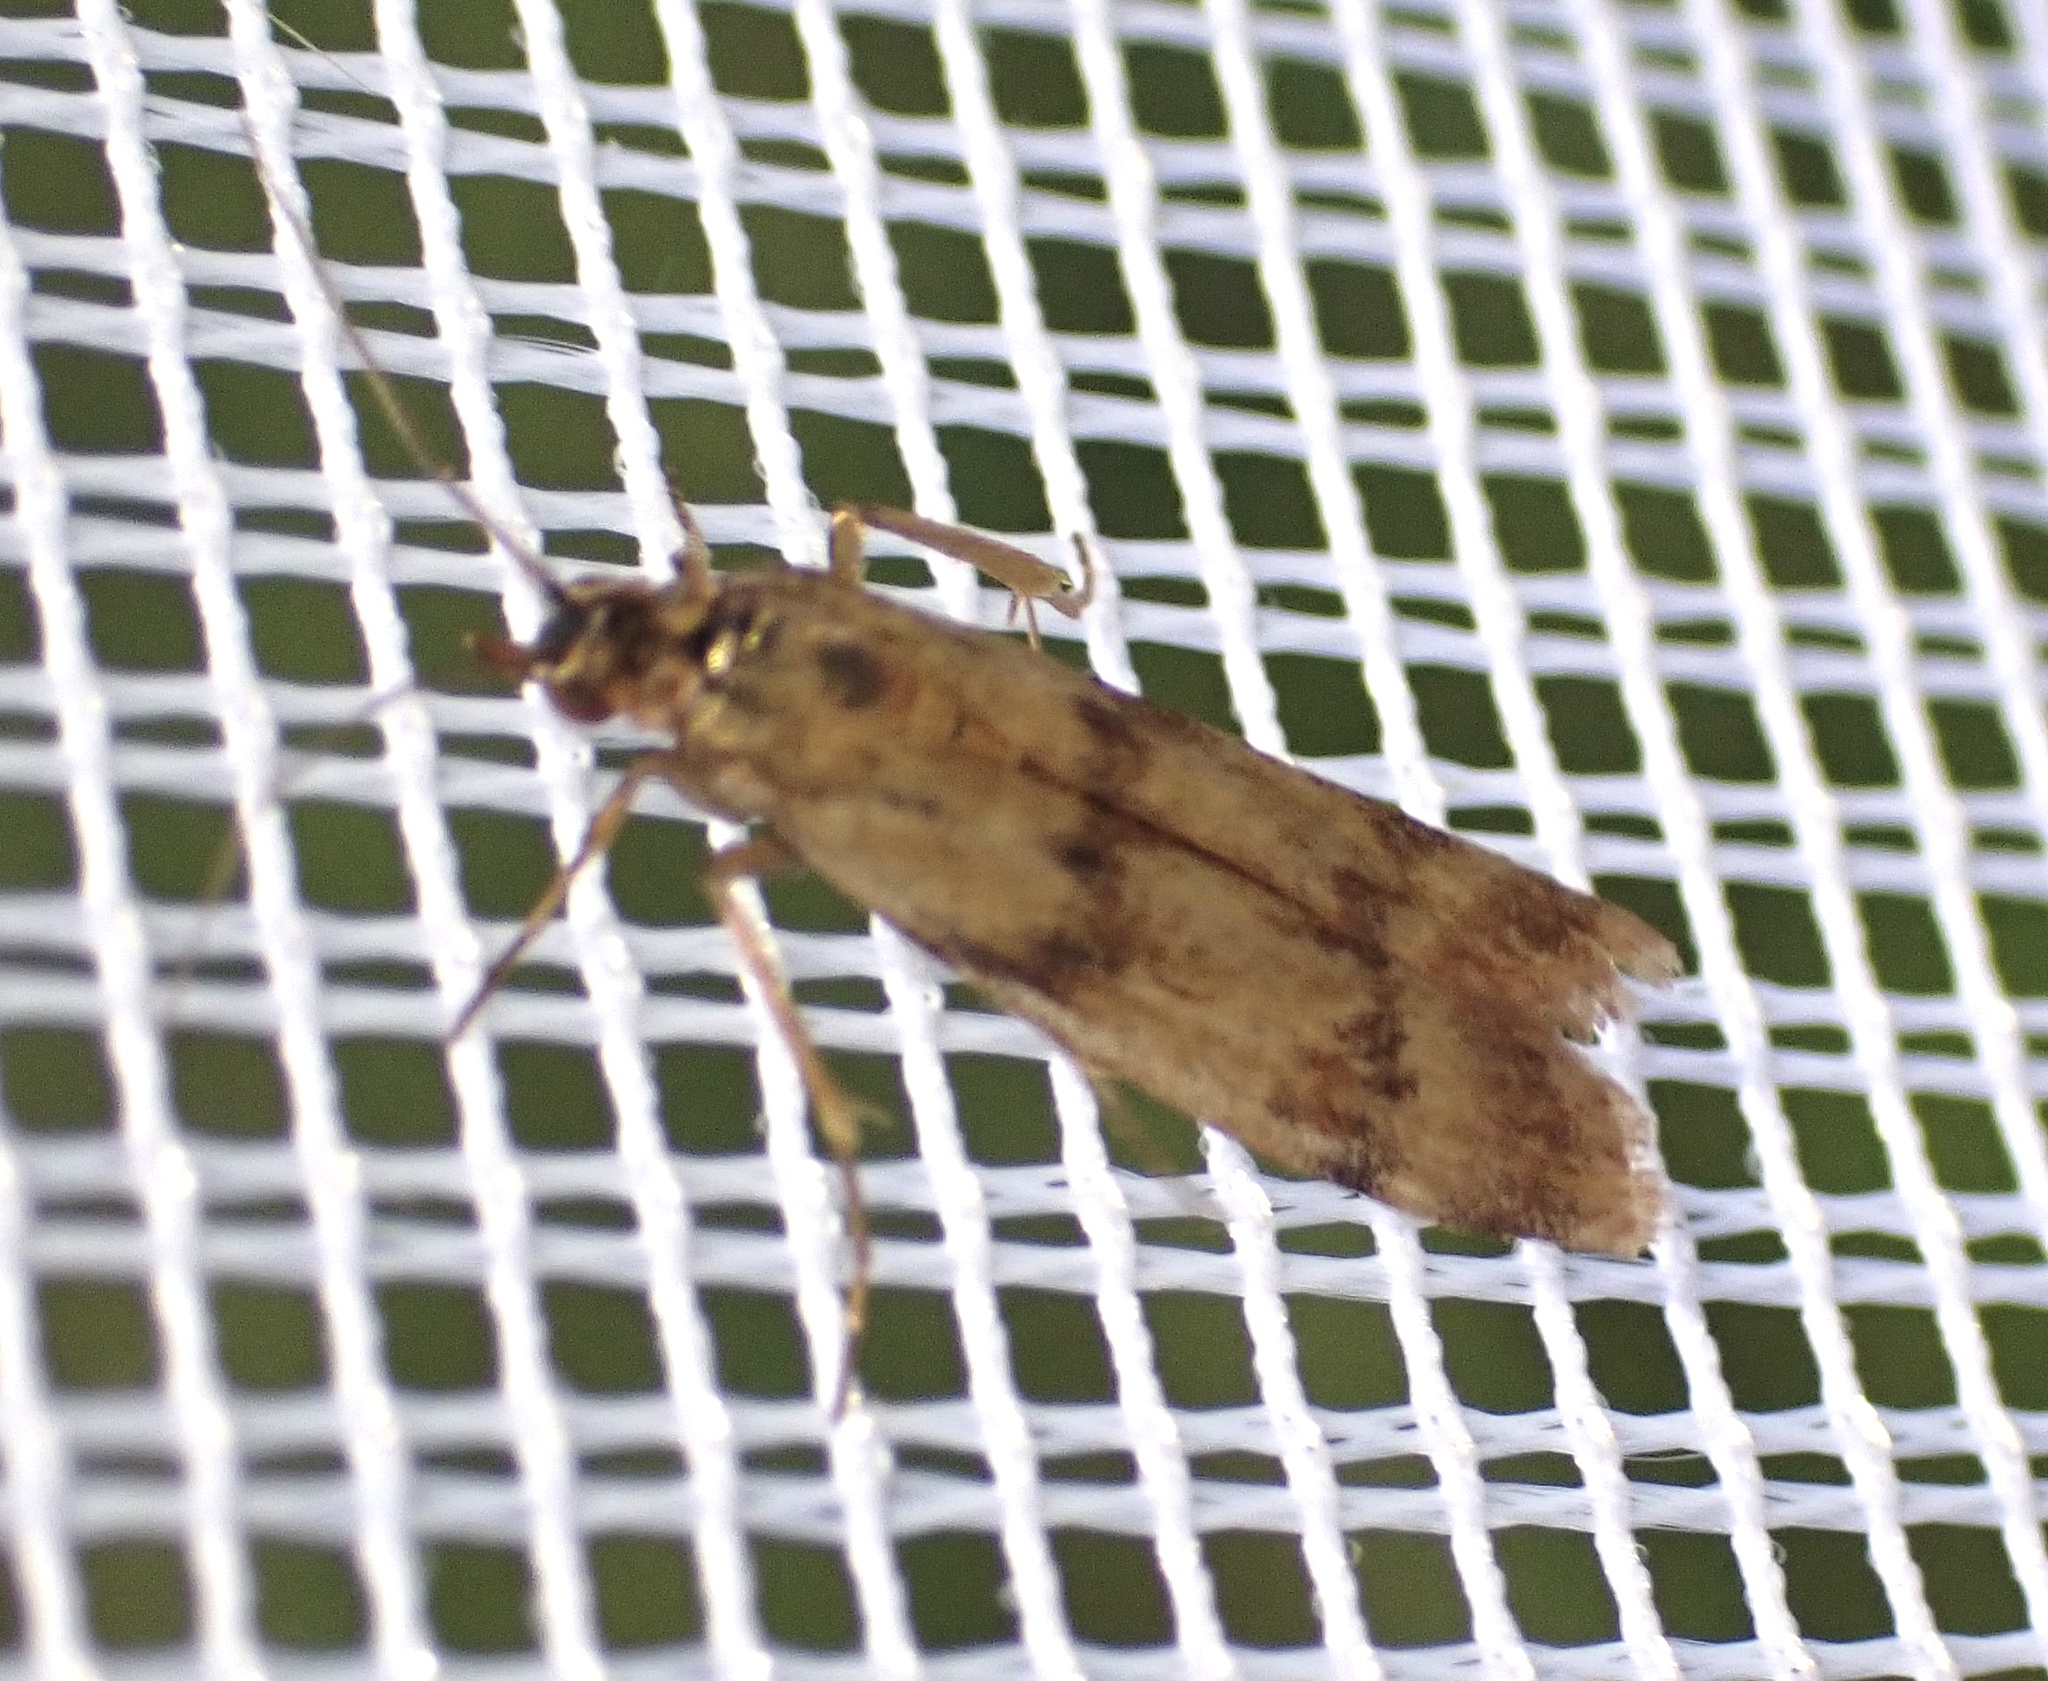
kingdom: Animalia
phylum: Arthropoda
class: Insecta
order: Lepidoptera
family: Pyralidae
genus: Homoeosoma
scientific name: Homoeosoma sinuella
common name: Twin-barred knot-horn
